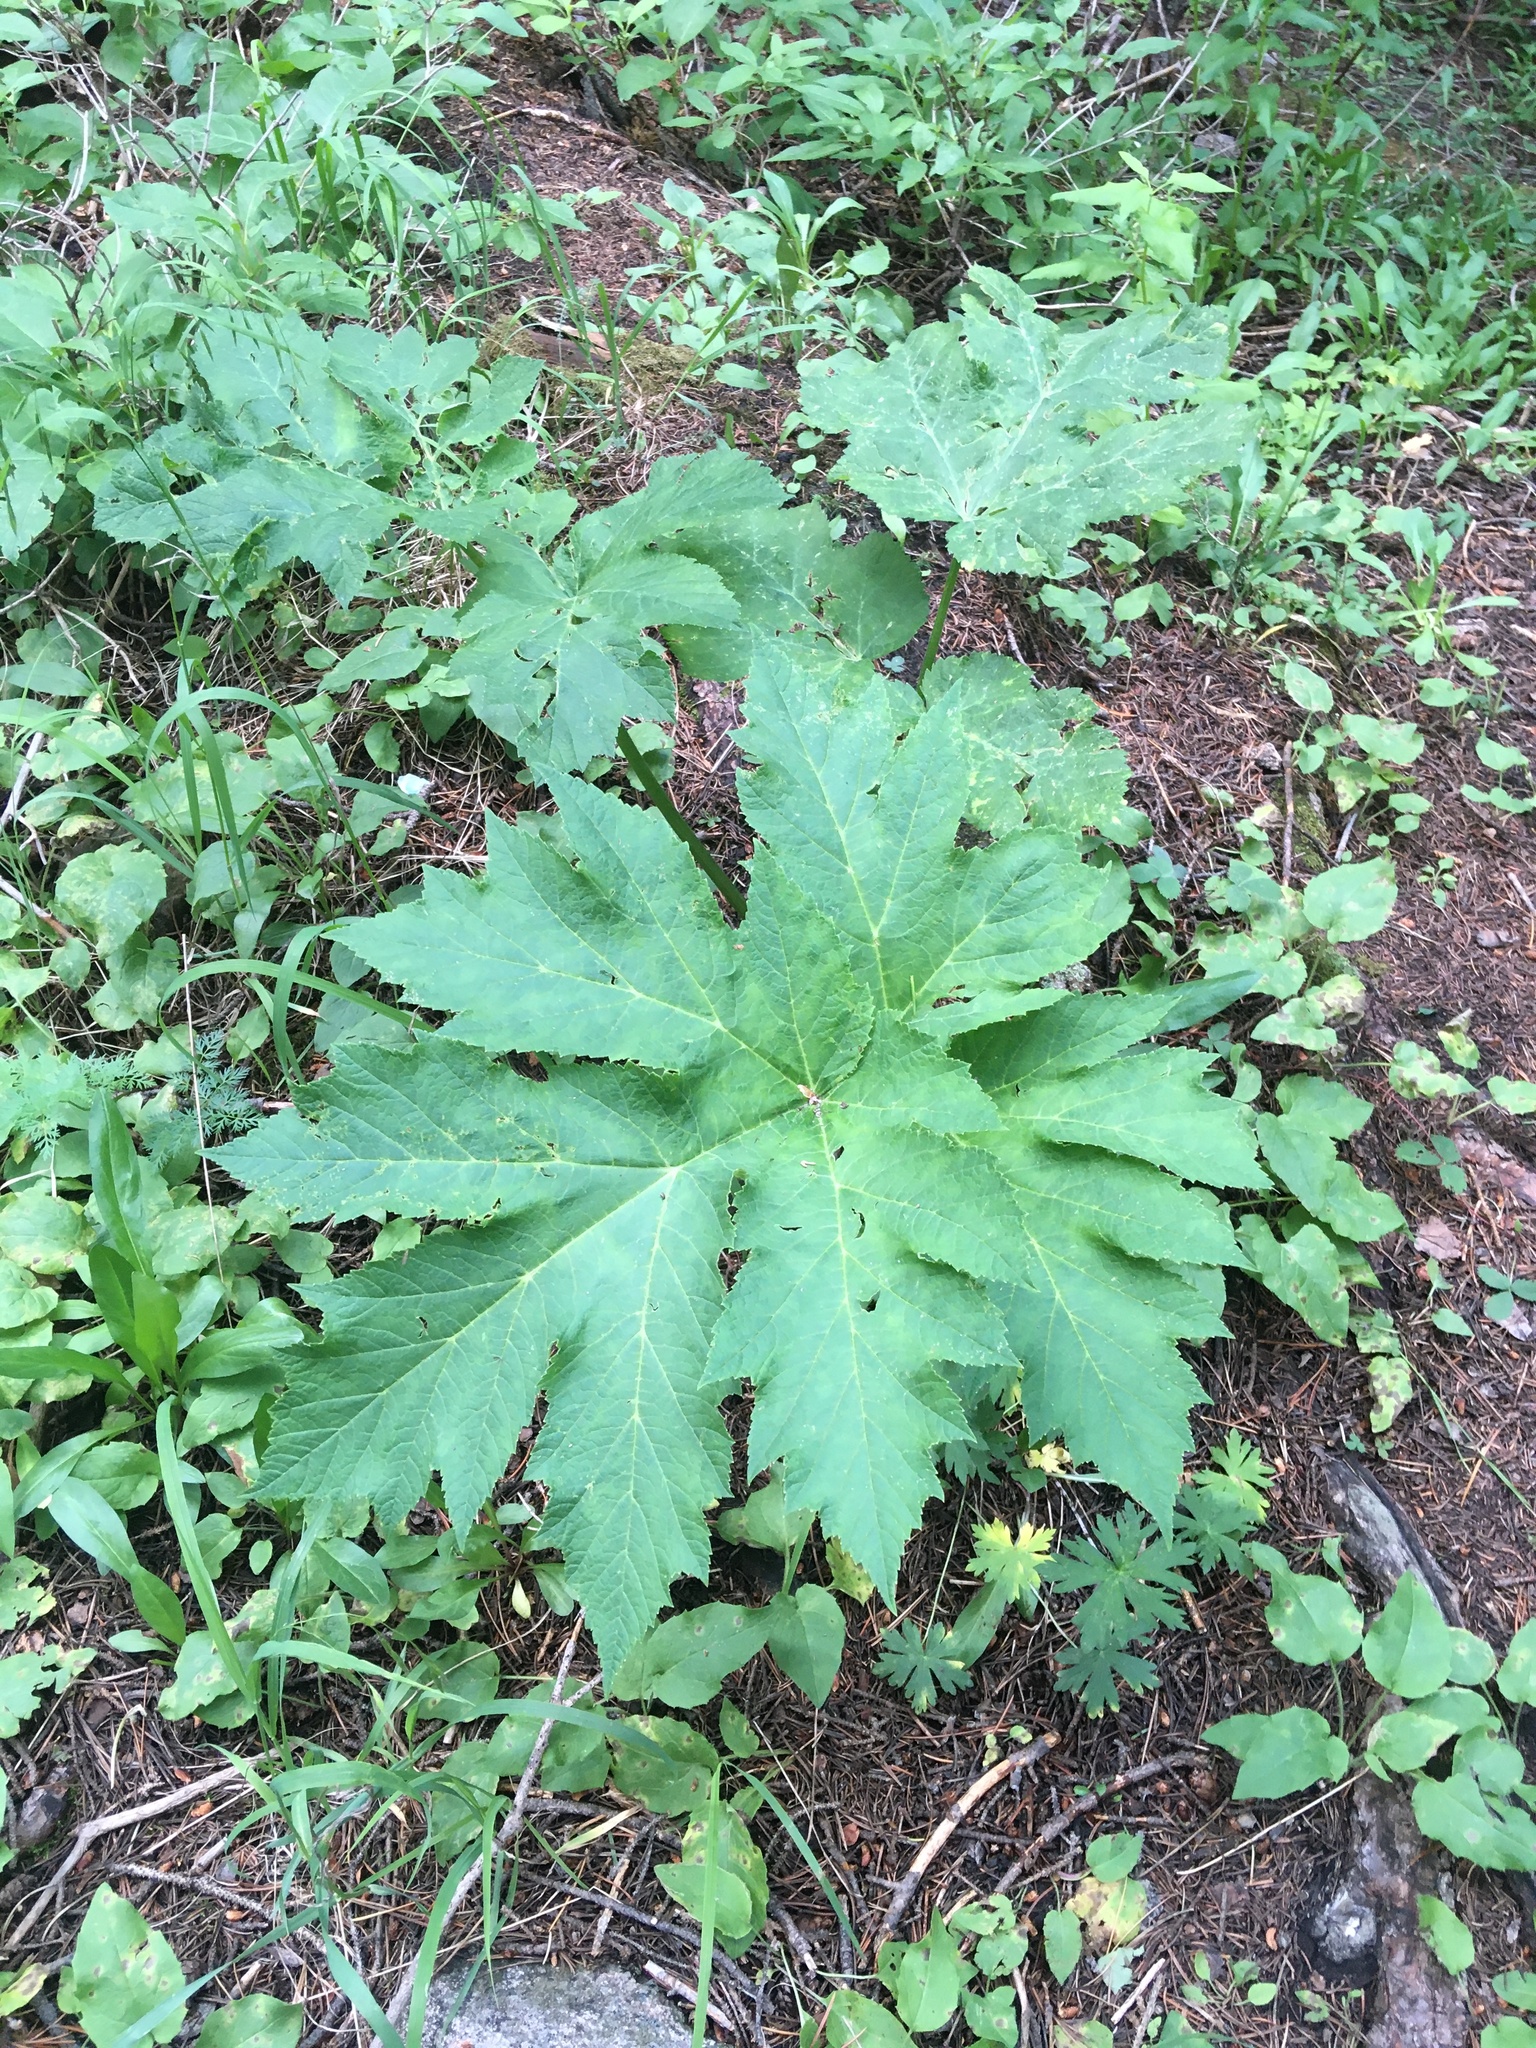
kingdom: Plantae
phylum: Tracheophyta
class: Magnoliopsida
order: Apiales
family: Apiaceae
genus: Heracleum
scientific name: Heracleum maximum
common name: American cow parsnip
